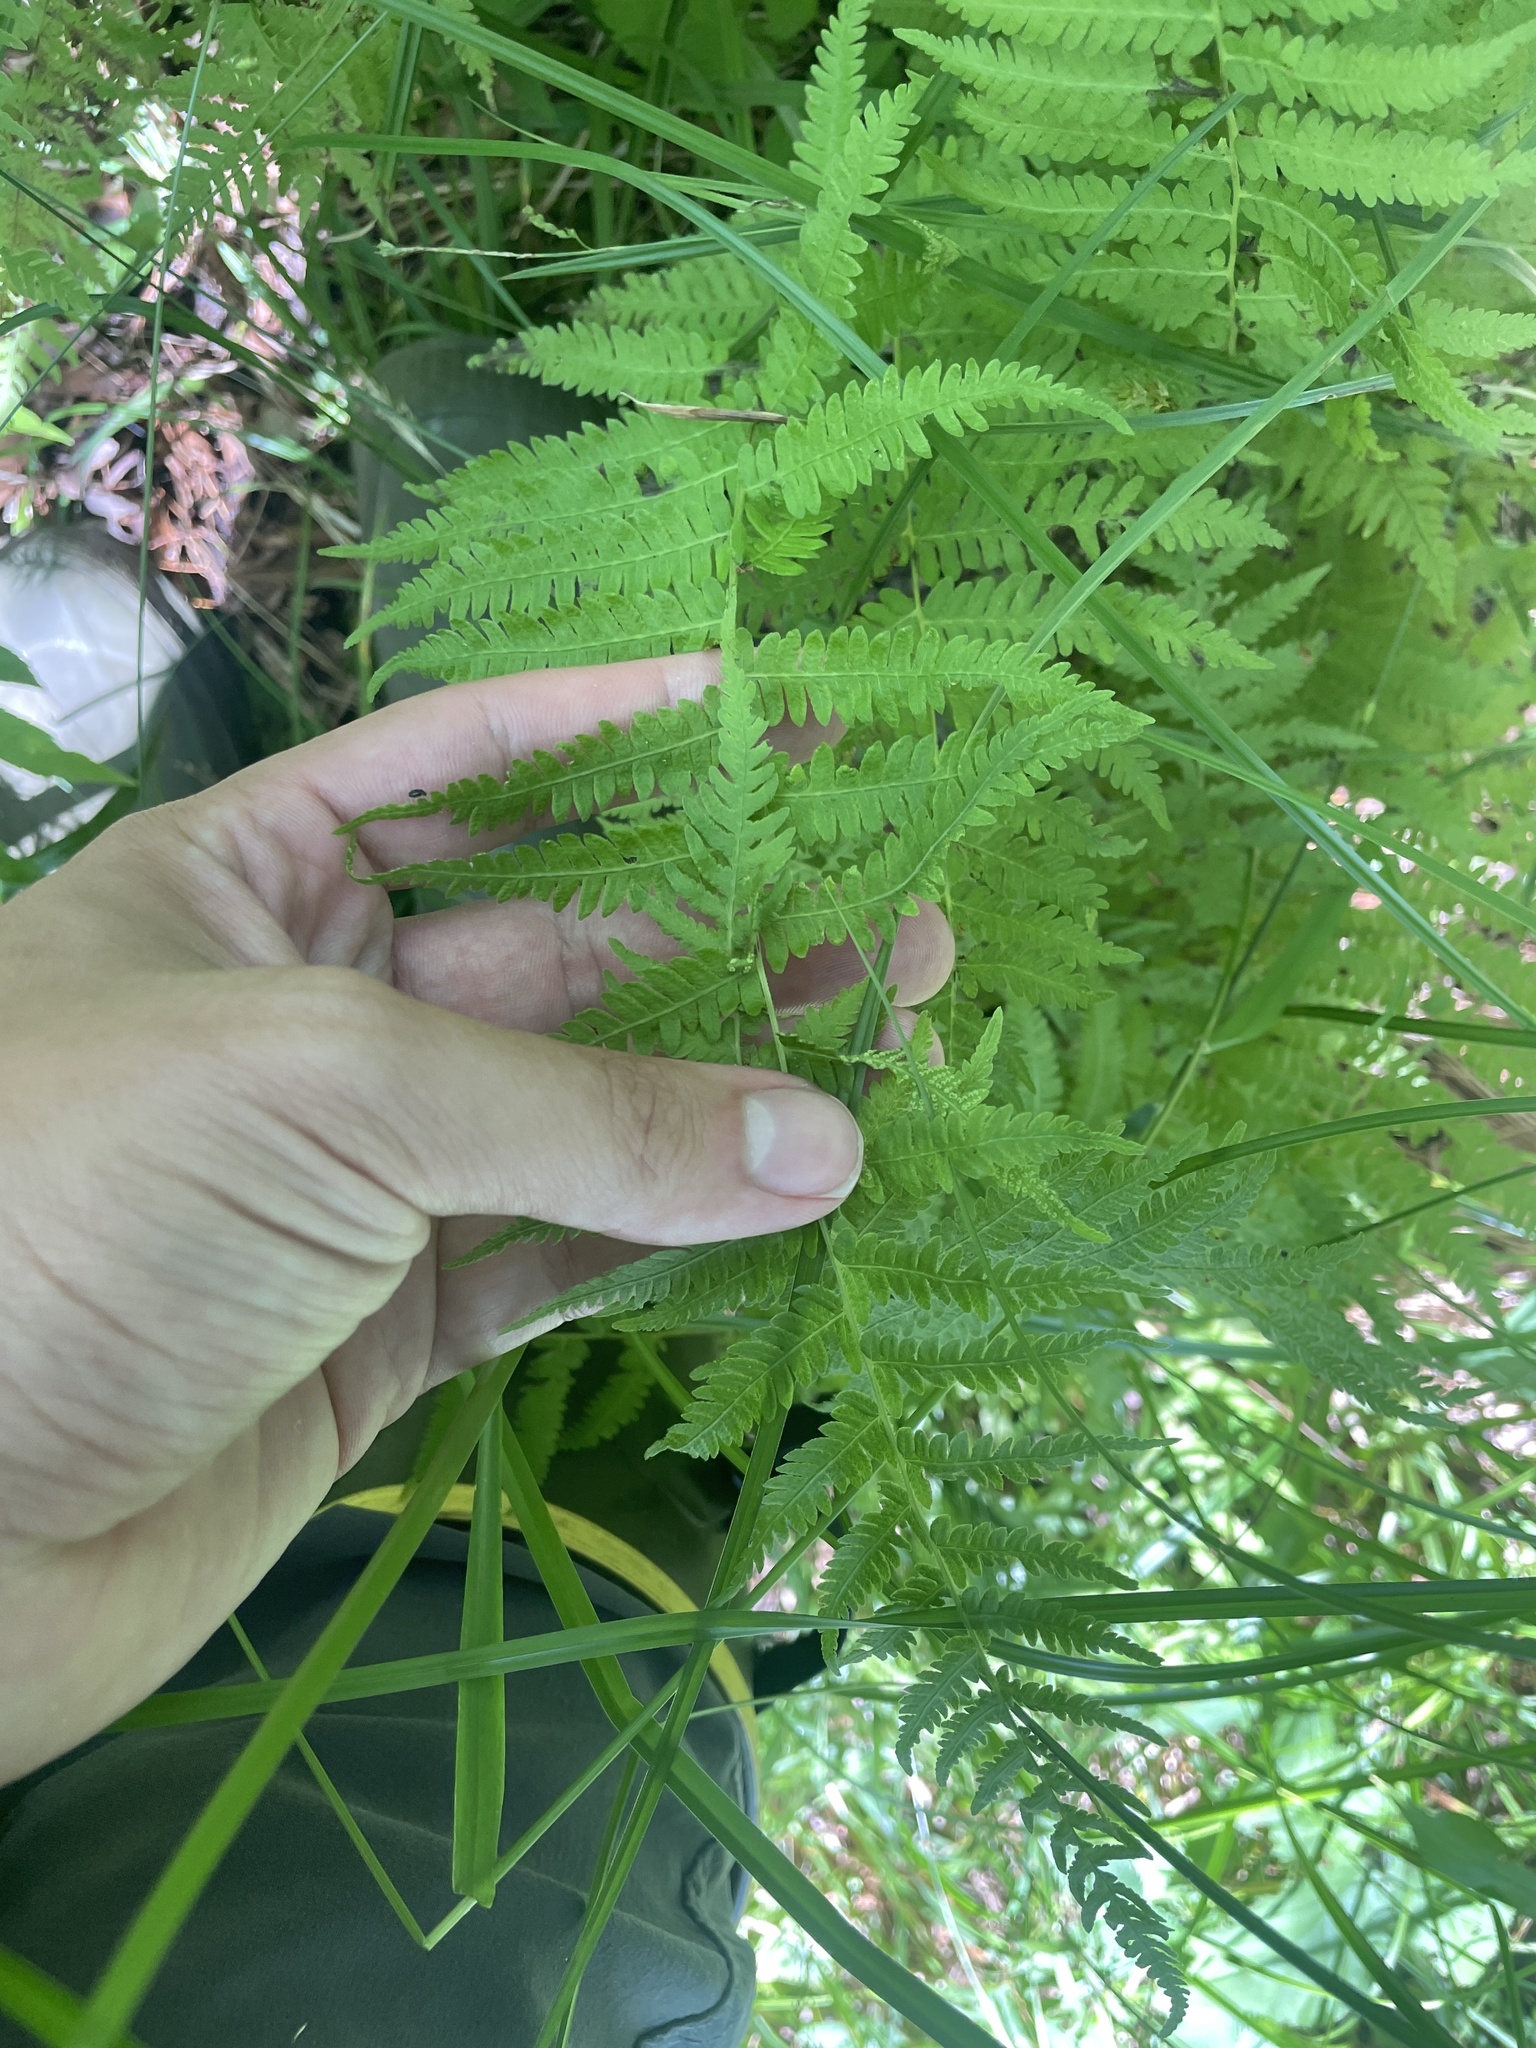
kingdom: Plantae
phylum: Tracheophyta
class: Polypodiopsida
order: Polypodiales
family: Thelypteridaceae
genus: Amauropelta
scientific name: Amauropelta noveboracensis
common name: New york fern
